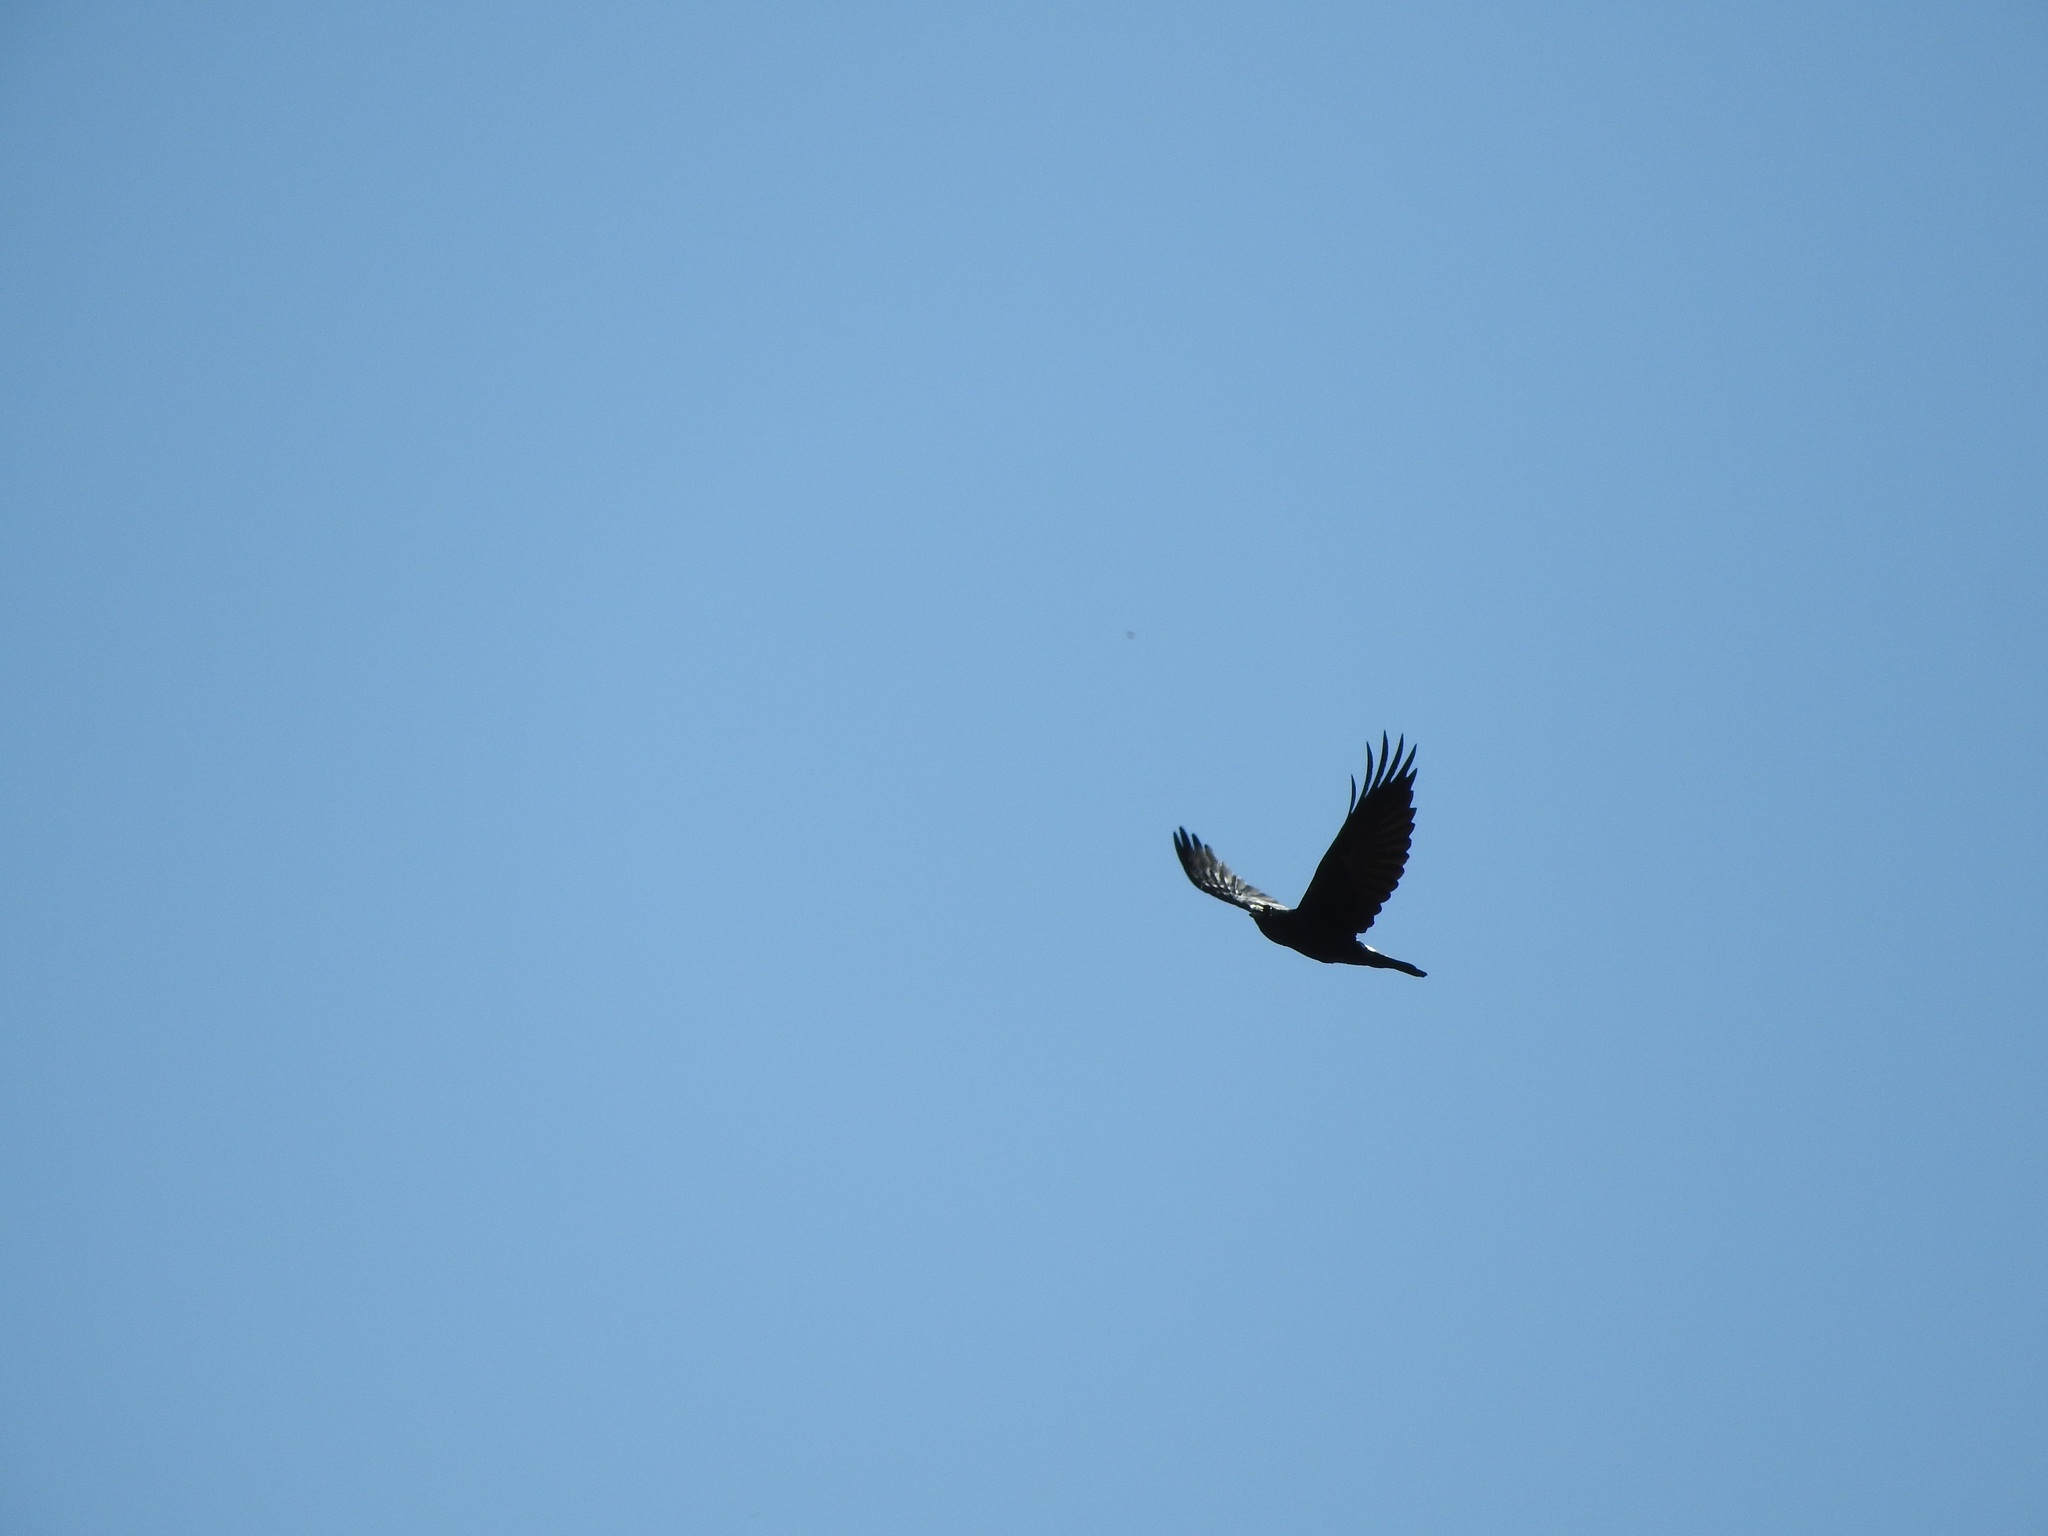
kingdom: Animalia
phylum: Chordata
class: Aves
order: Passeriformes
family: Corvidae
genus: Corvus
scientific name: Corvus corax
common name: Common raven
